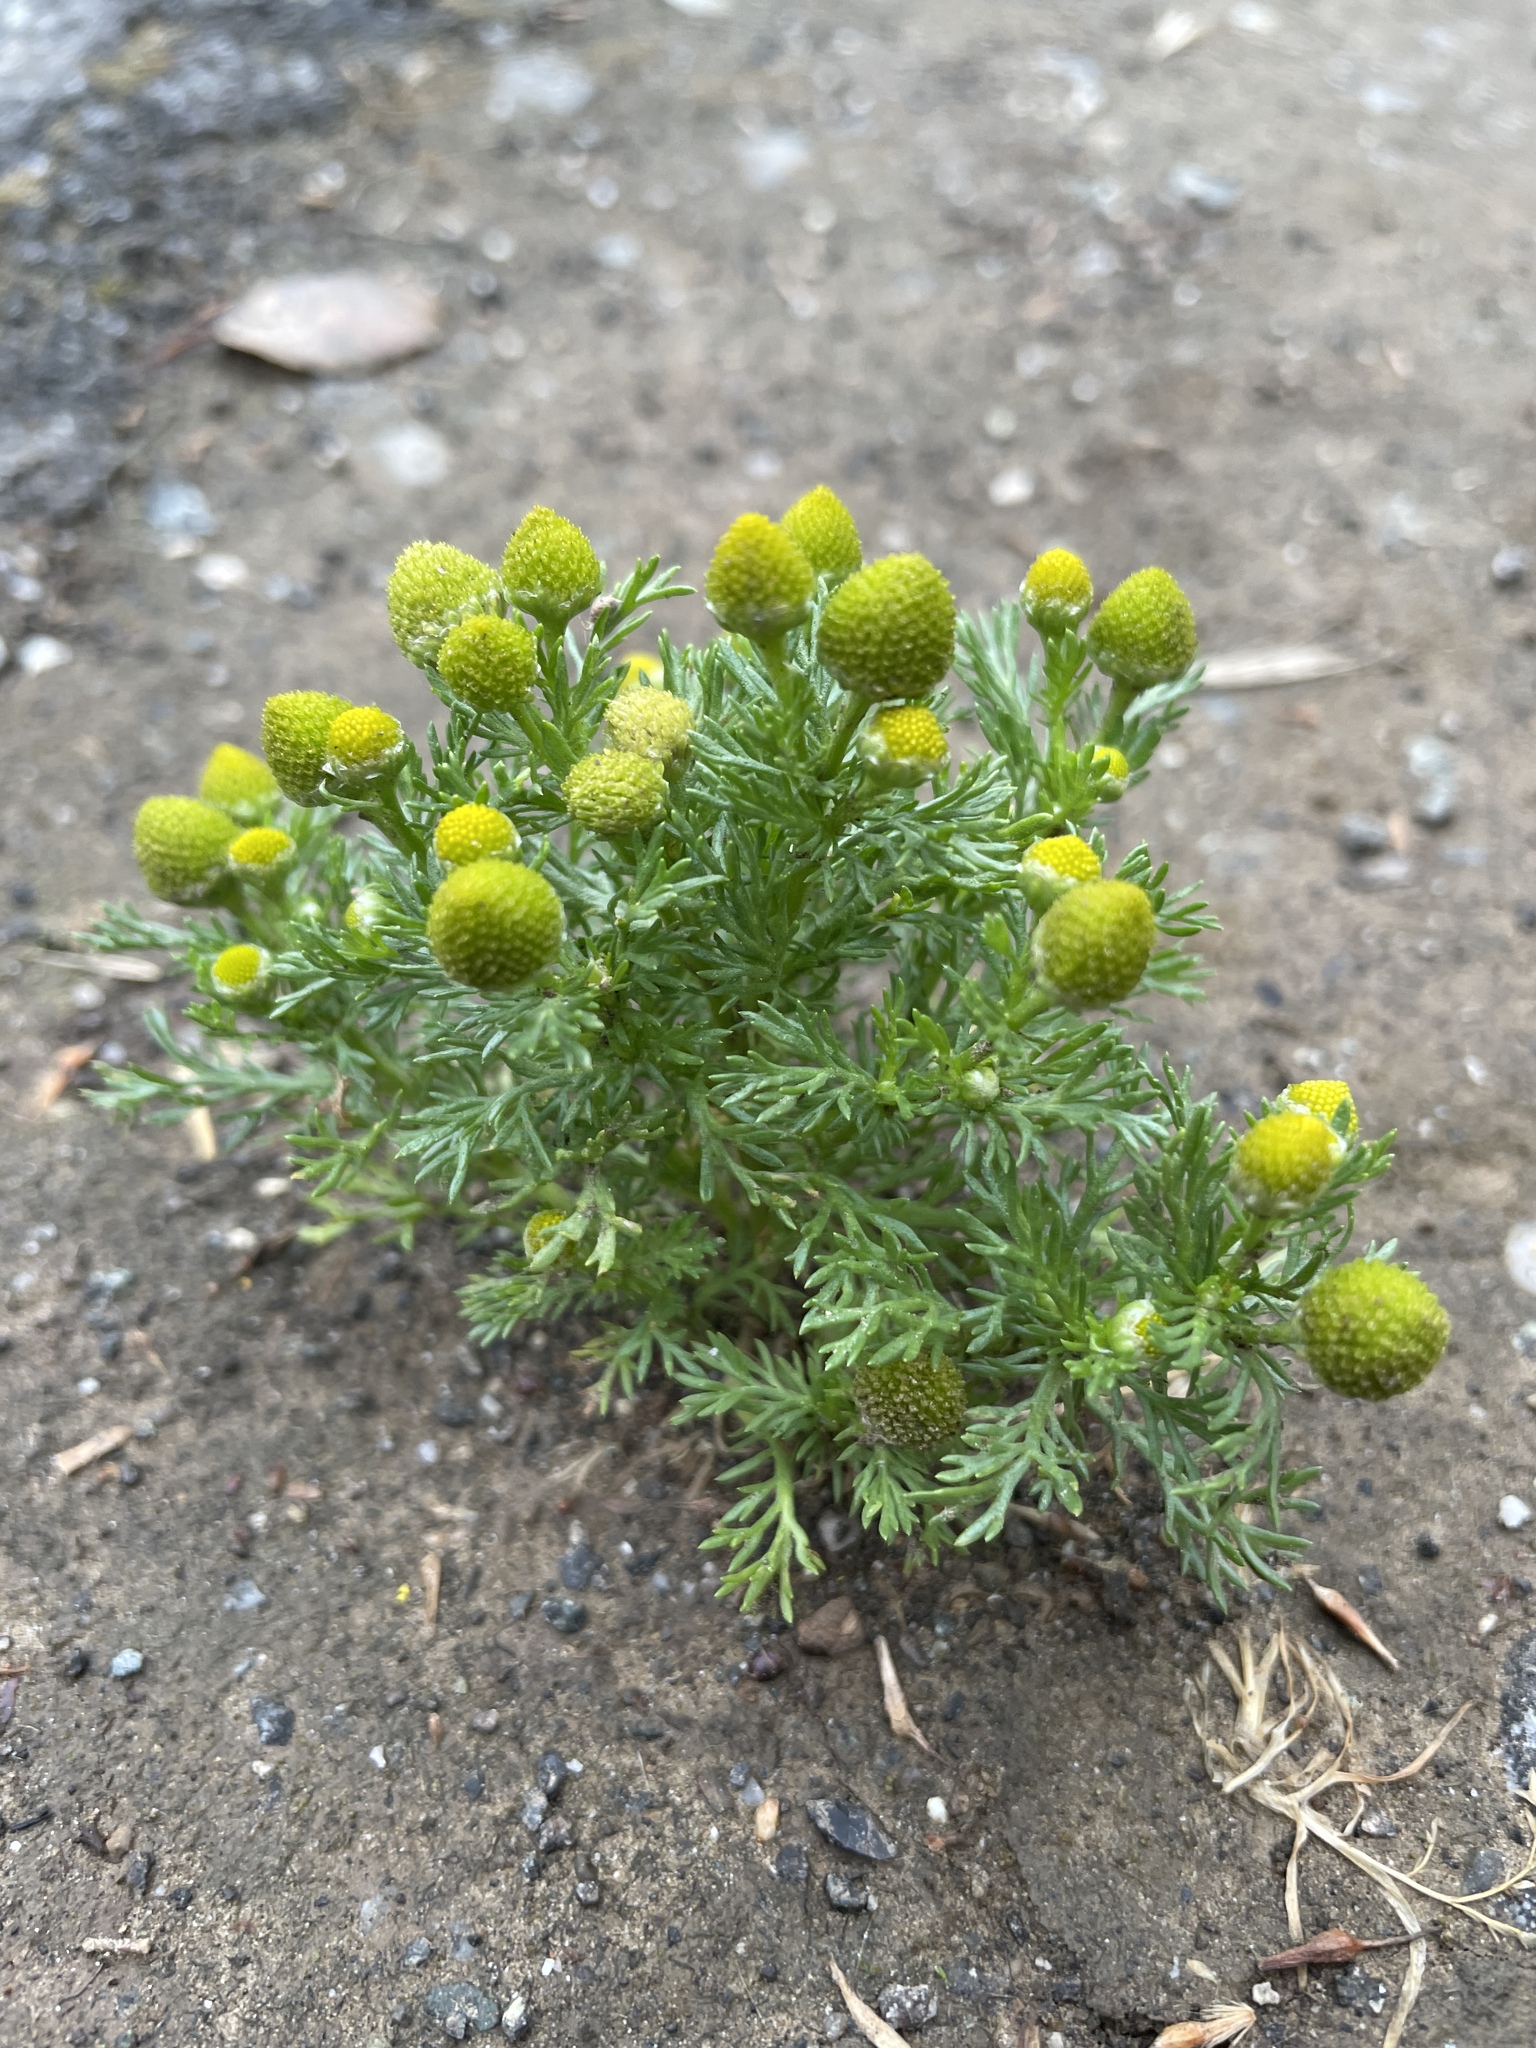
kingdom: Plantae
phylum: Tracheophyta
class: Magnoliopsida
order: Asterales
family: Asteraceae
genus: Matricaria
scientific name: Matricaria discoidea
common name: Disc mayweed
